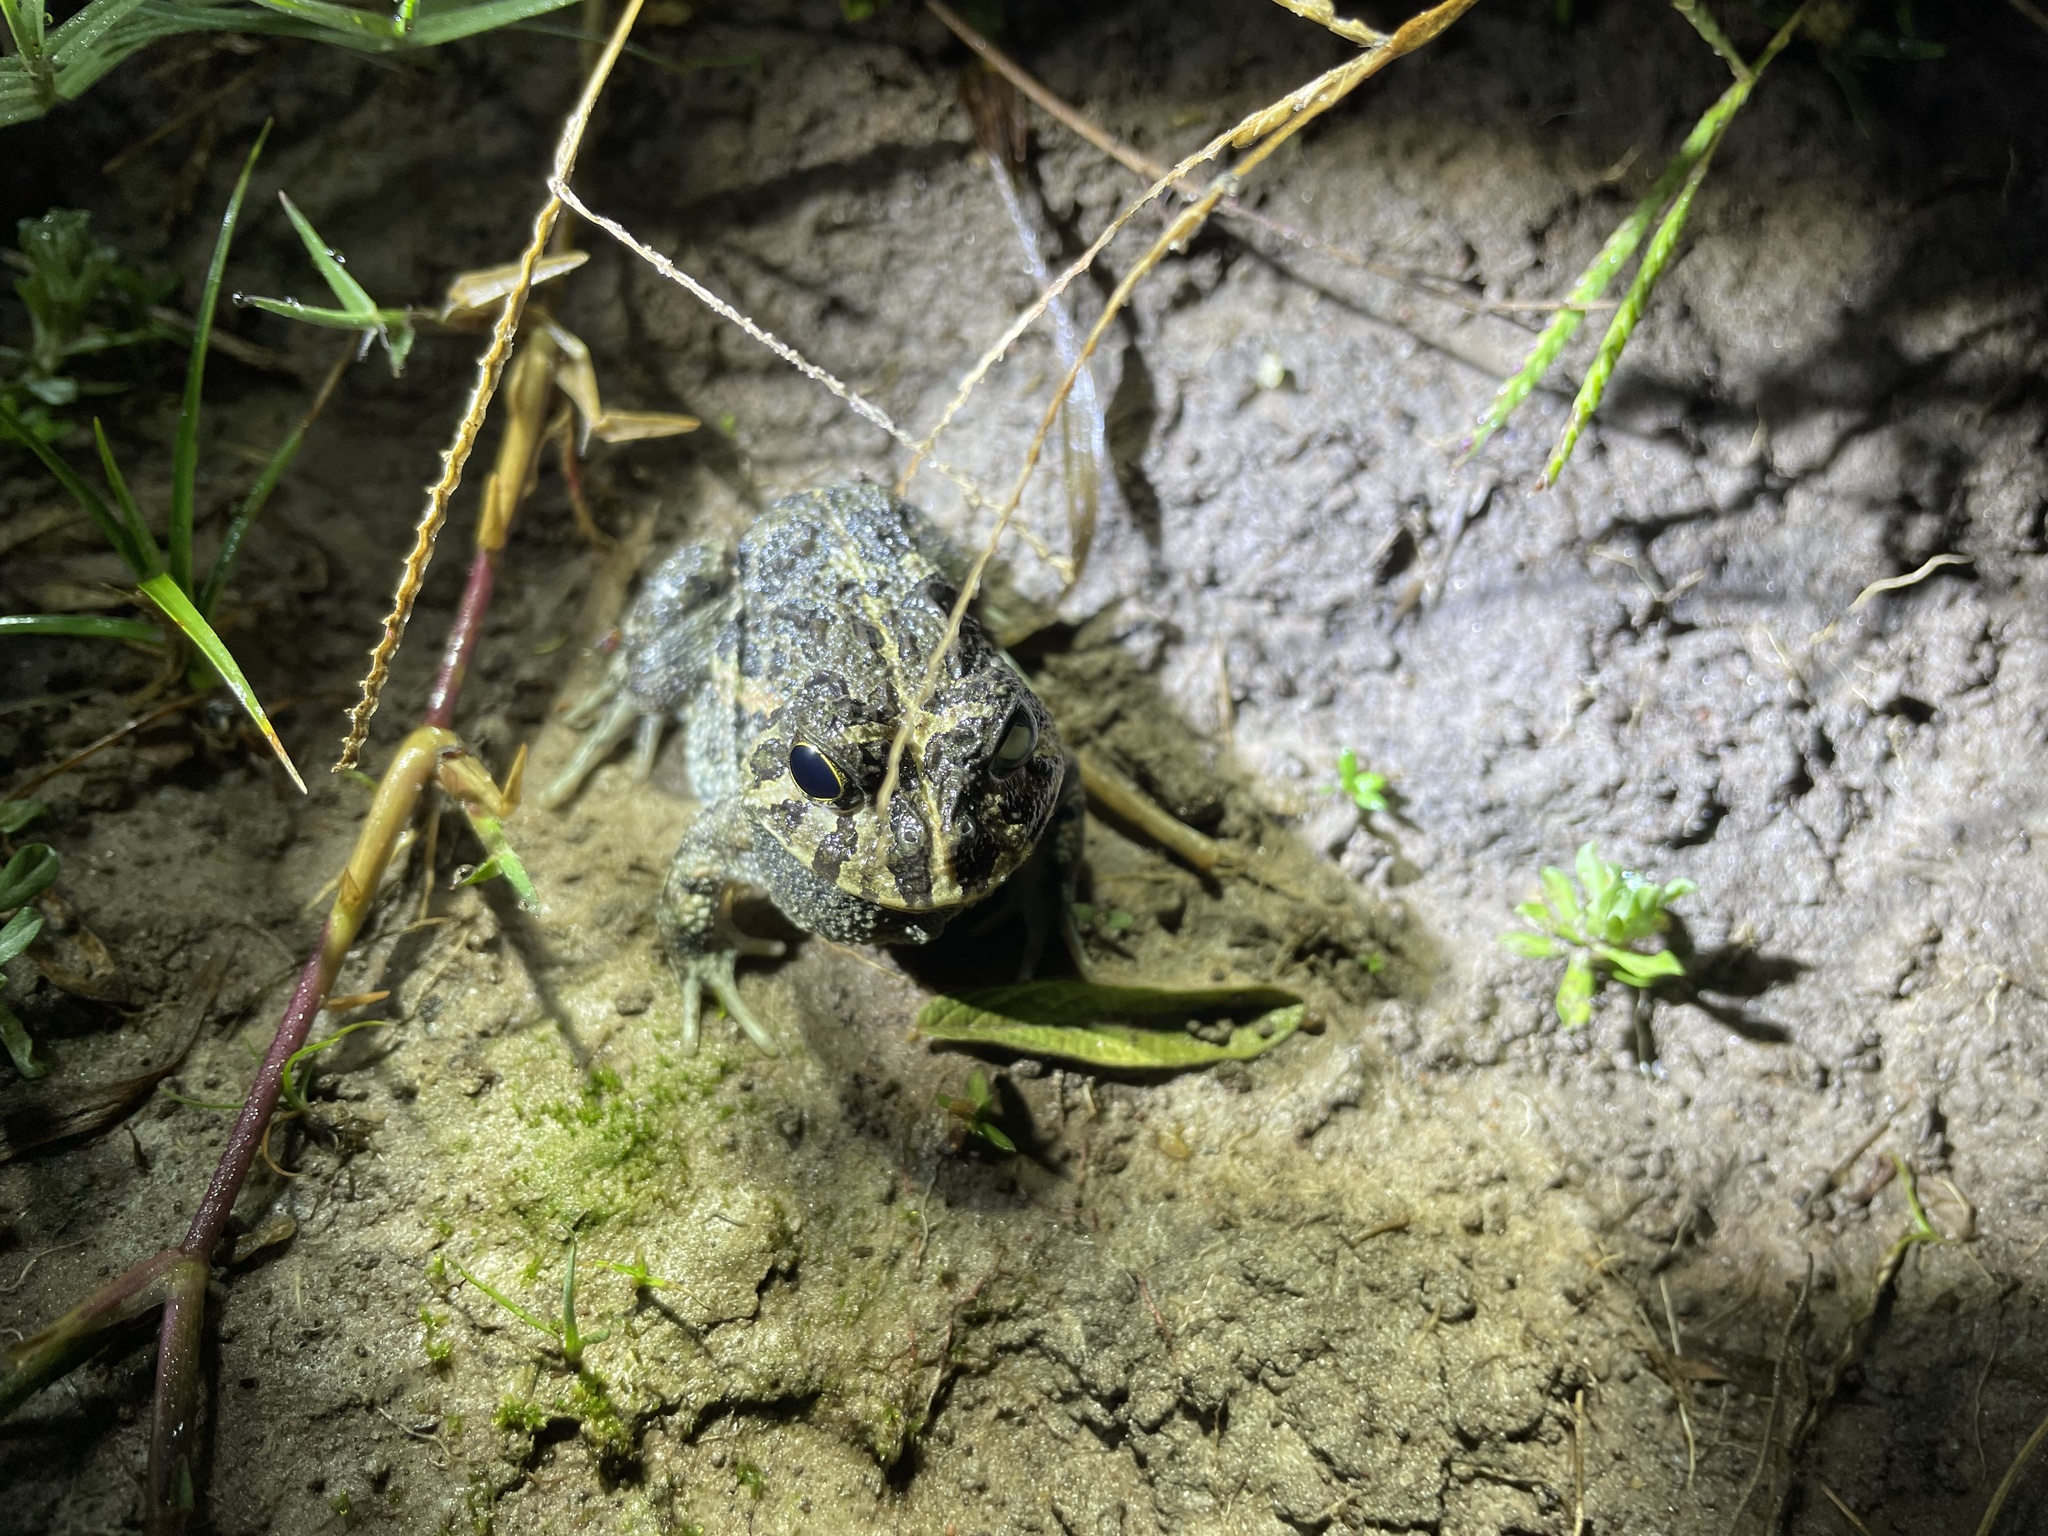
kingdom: Animalia
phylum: Chordata
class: Amphibia
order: Anura
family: Odontophrynidae
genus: Odontophrynus
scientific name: Odontophrynus
